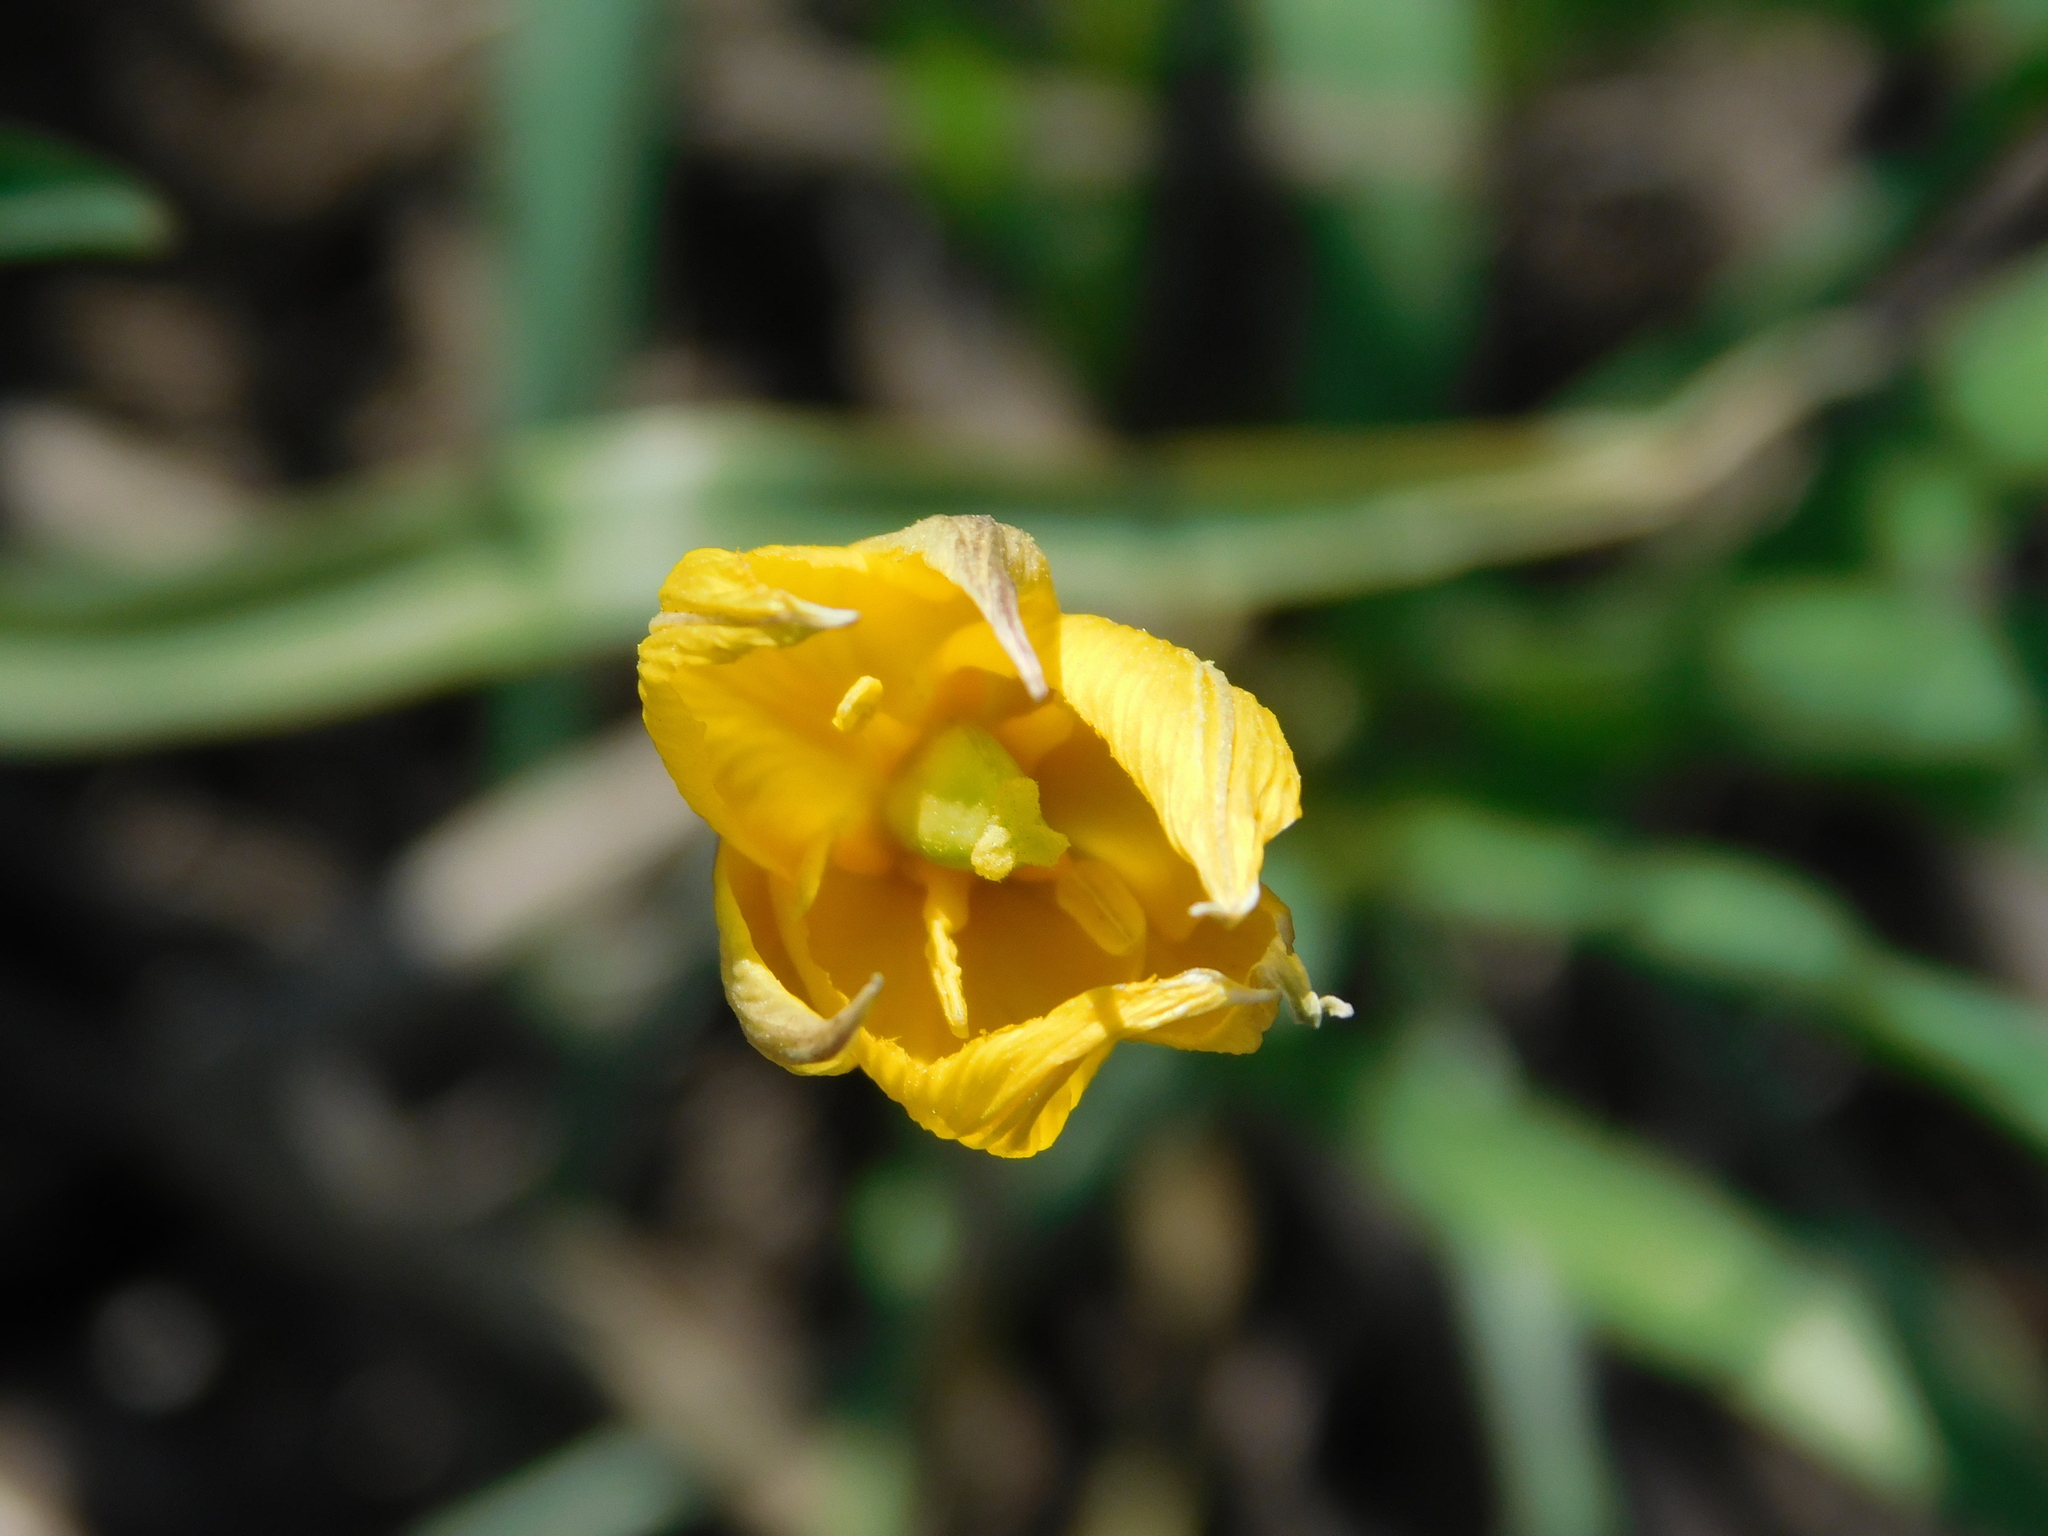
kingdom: Plantae
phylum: Tracheophyta
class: Liliopsida
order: Liliales
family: Liliaceae
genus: Tulipa
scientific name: Tulipa sylvestris
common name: Wild tulip
